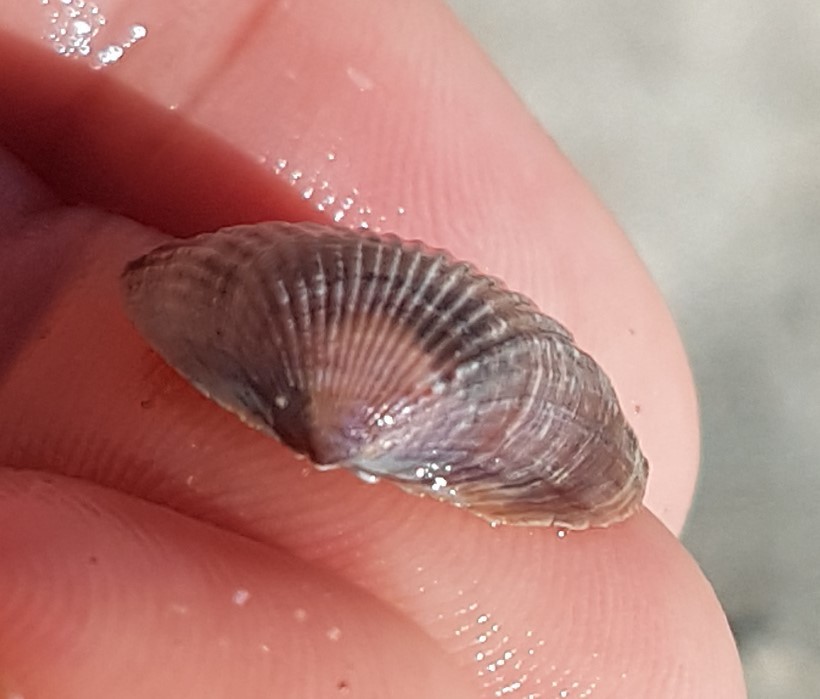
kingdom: Animalia
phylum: Mollusca
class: Bivalvia
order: Cardiida
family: Cardiidae
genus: Cerastoderma
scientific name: Cerastoderma glaucum
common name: Lagoon cockle
